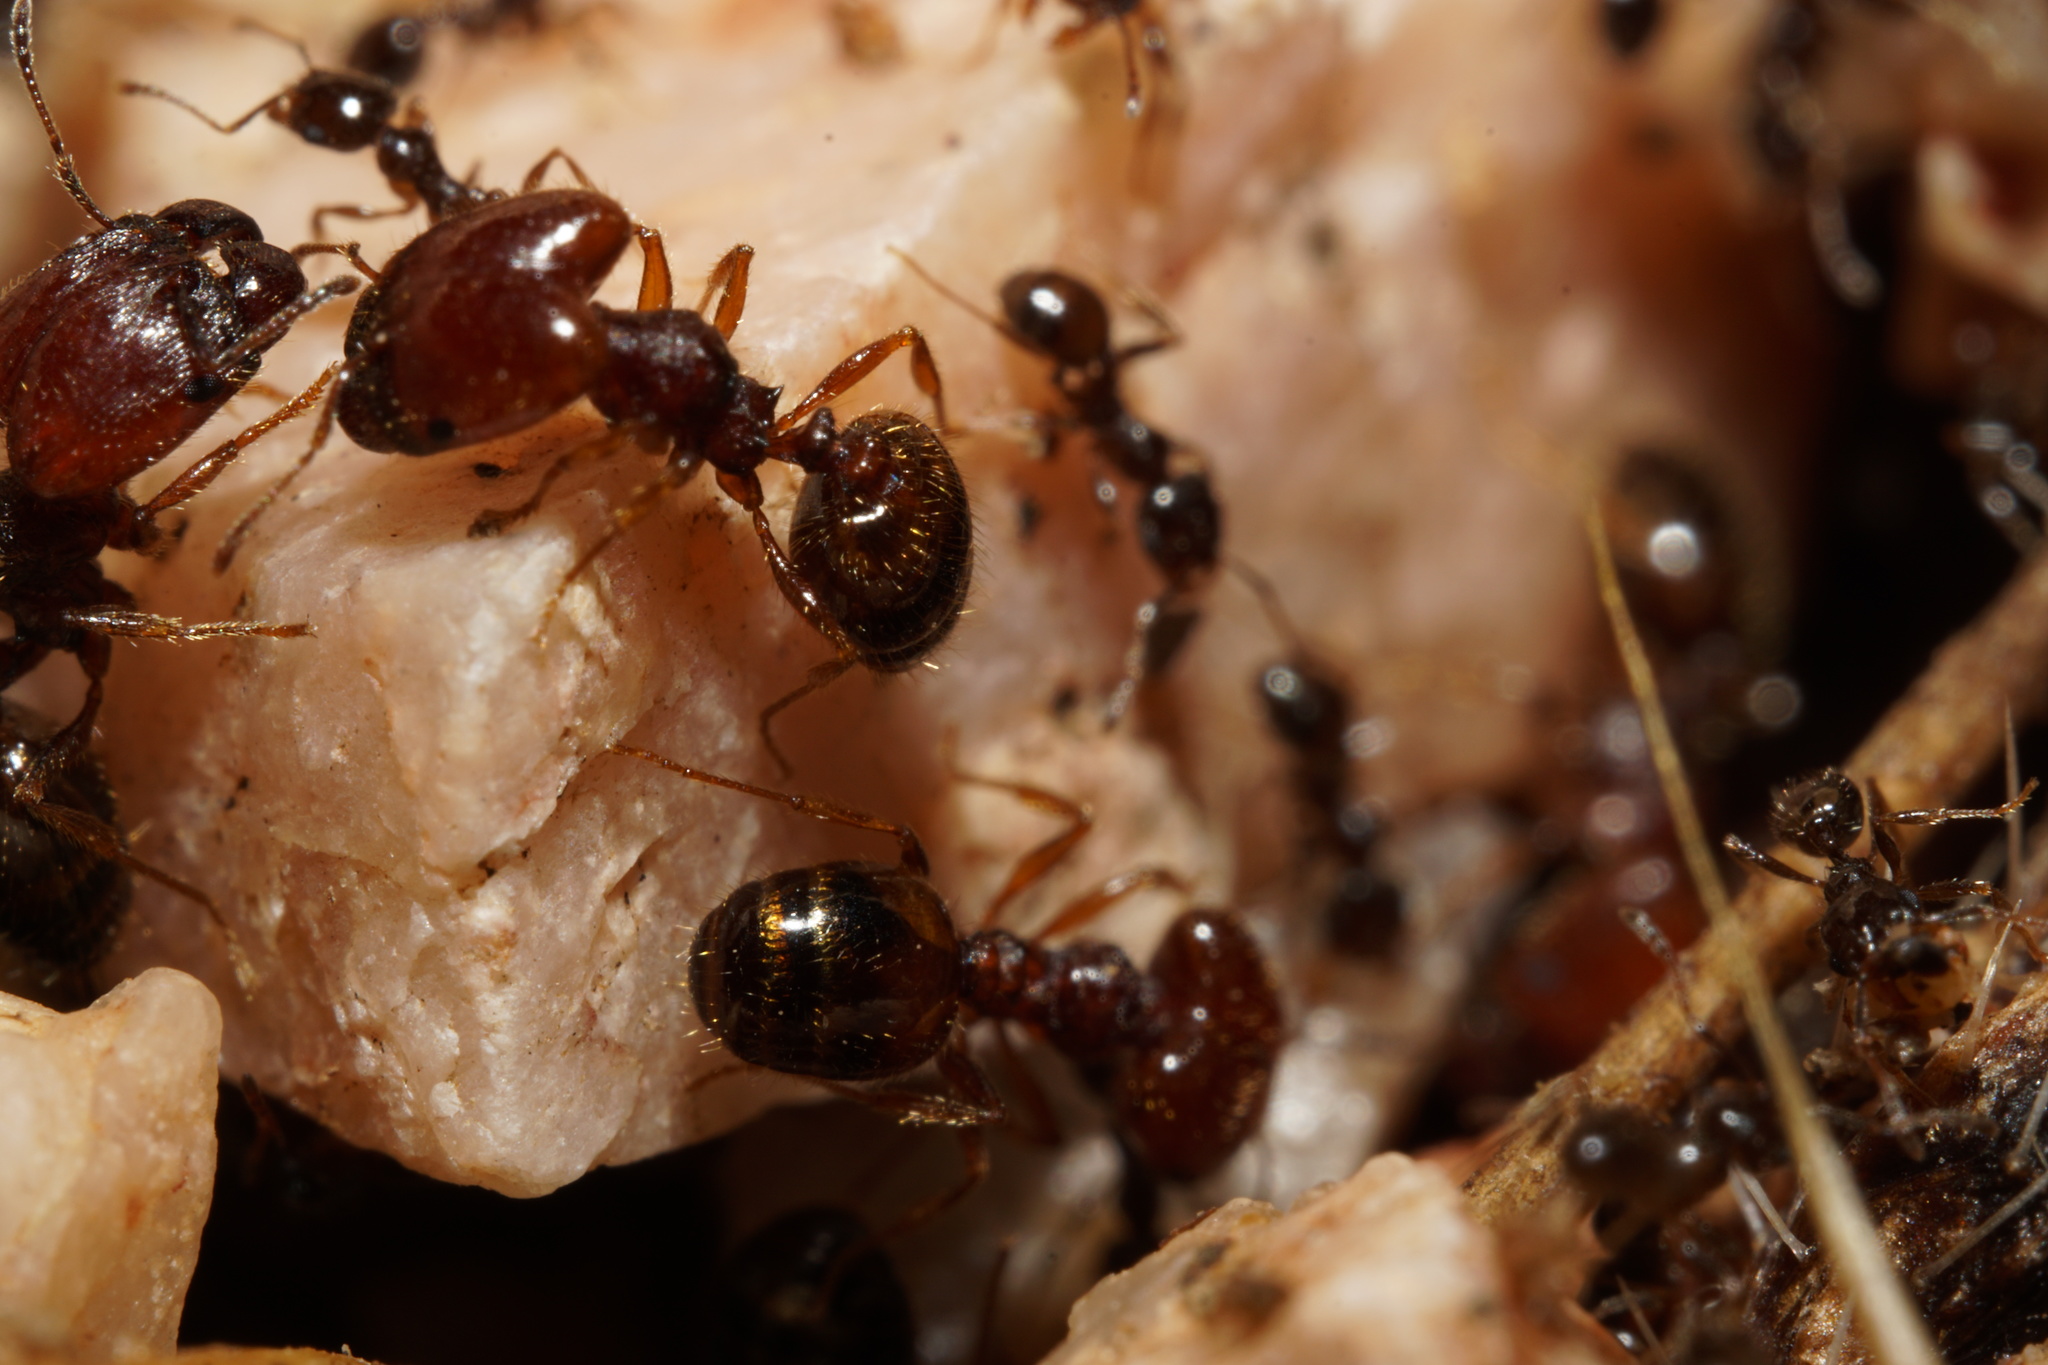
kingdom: Animalia
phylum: Arthropoda
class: Insecta
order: Hymenoptera
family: Formicidae
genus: Pheidole
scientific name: Pheidole xerophila
